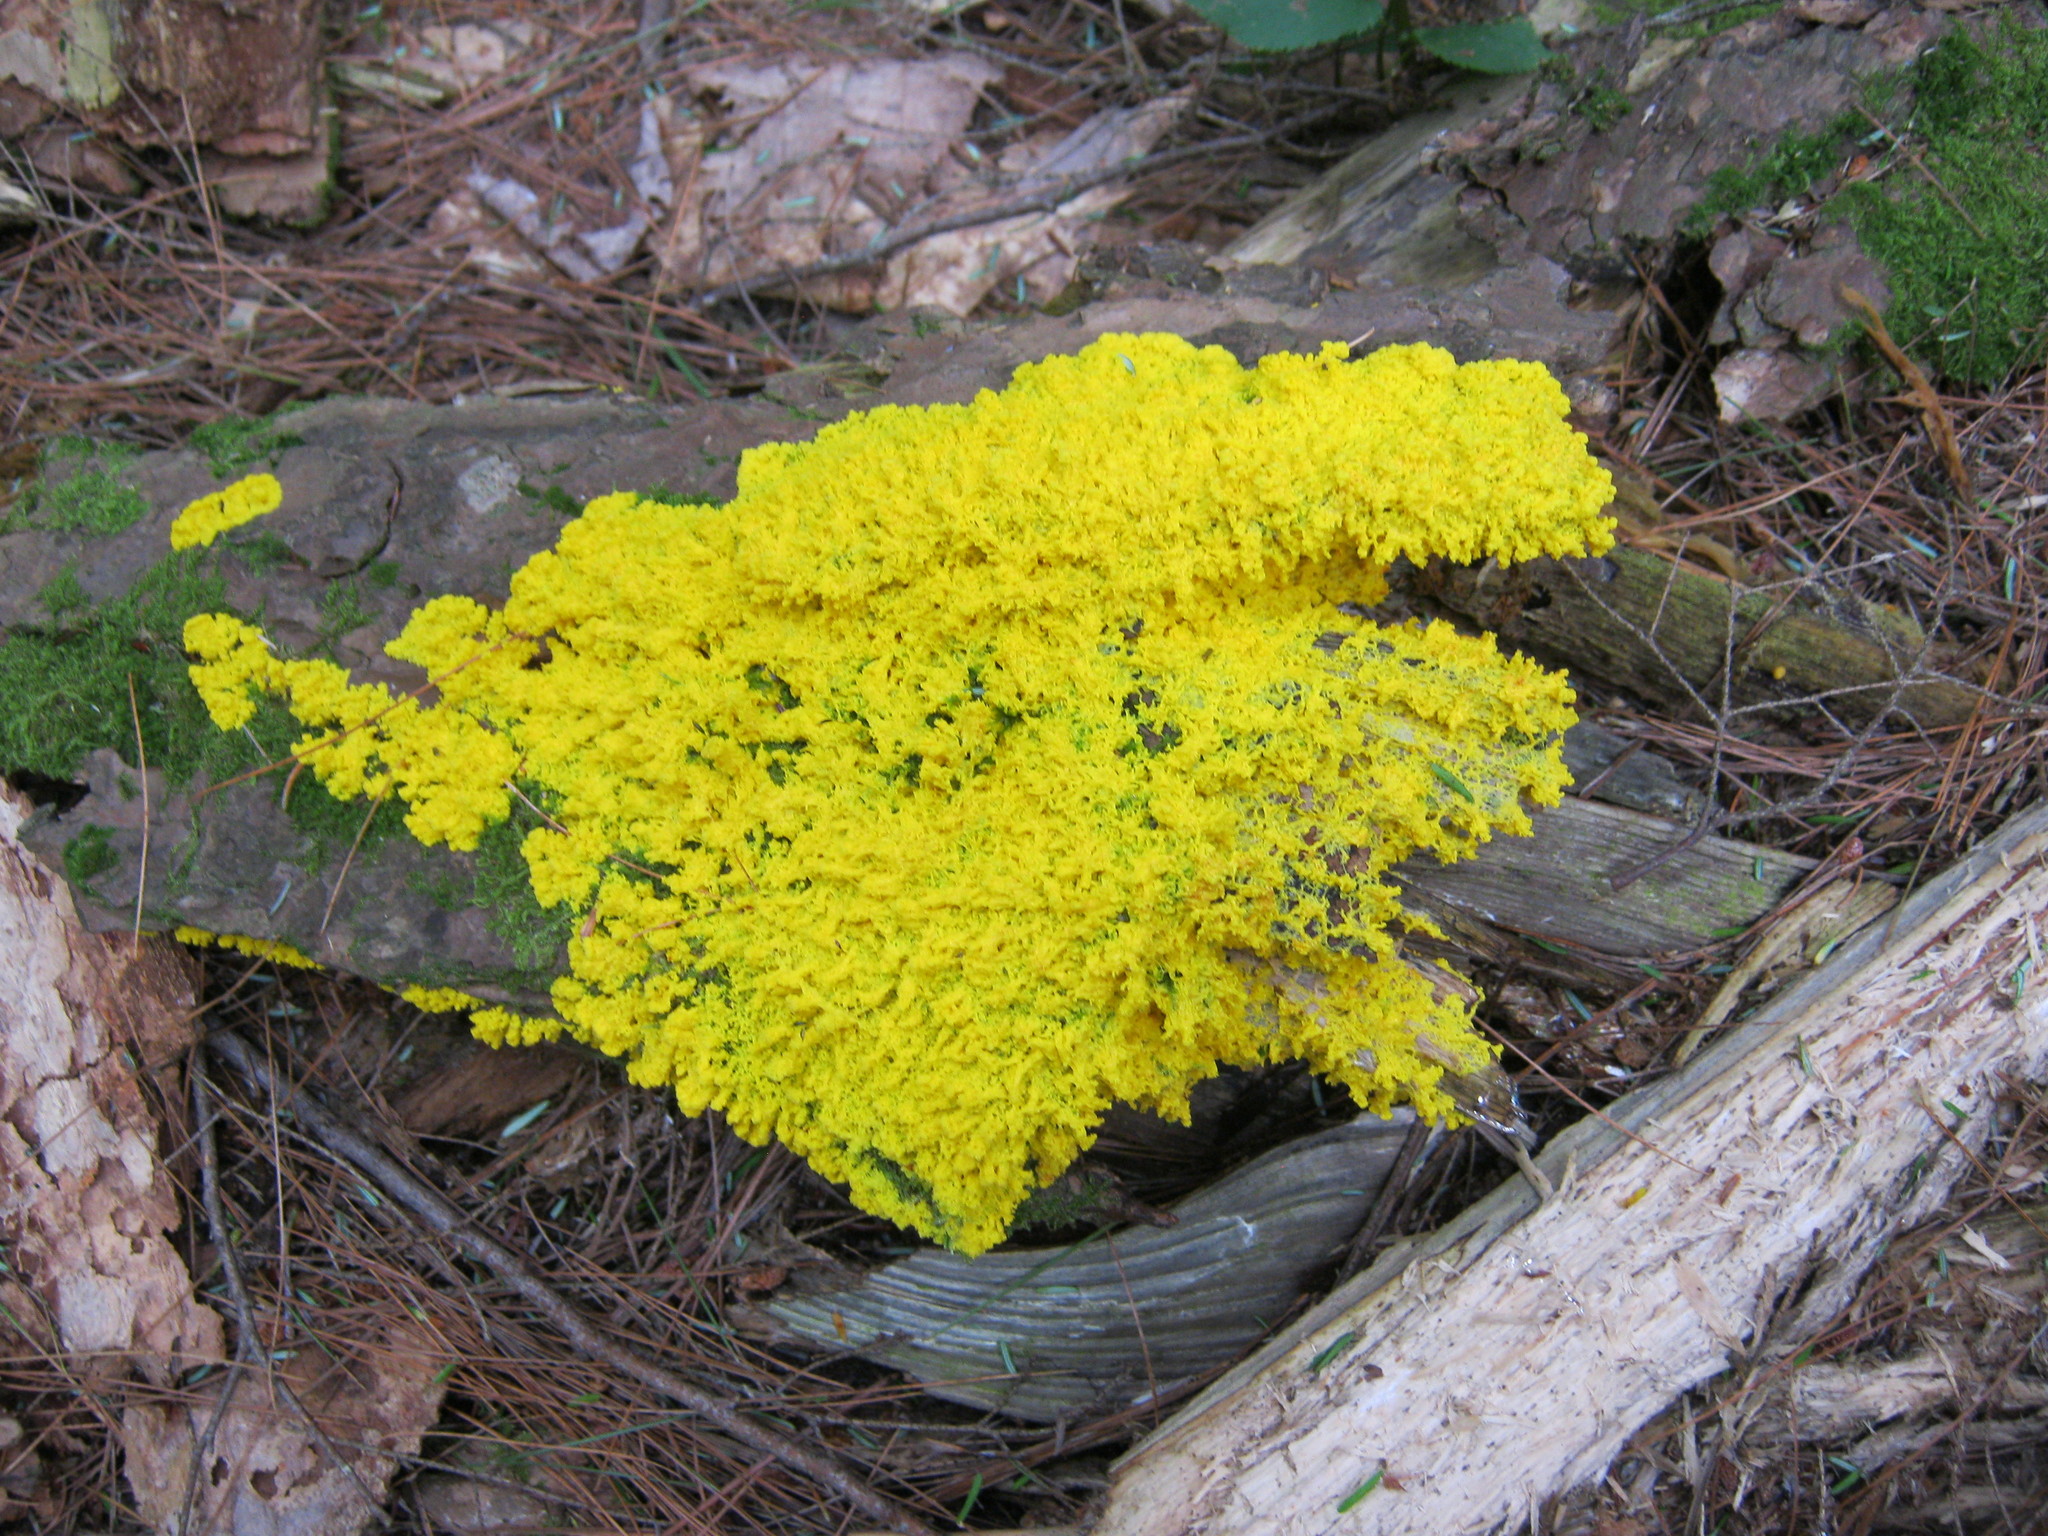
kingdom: Protozoa
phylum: Mycetozoa
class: Myxomycetes
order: Physarales
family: Physaraceae
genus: Fuligo
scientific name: Fuligo septica
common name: Dog vomit slime mold
